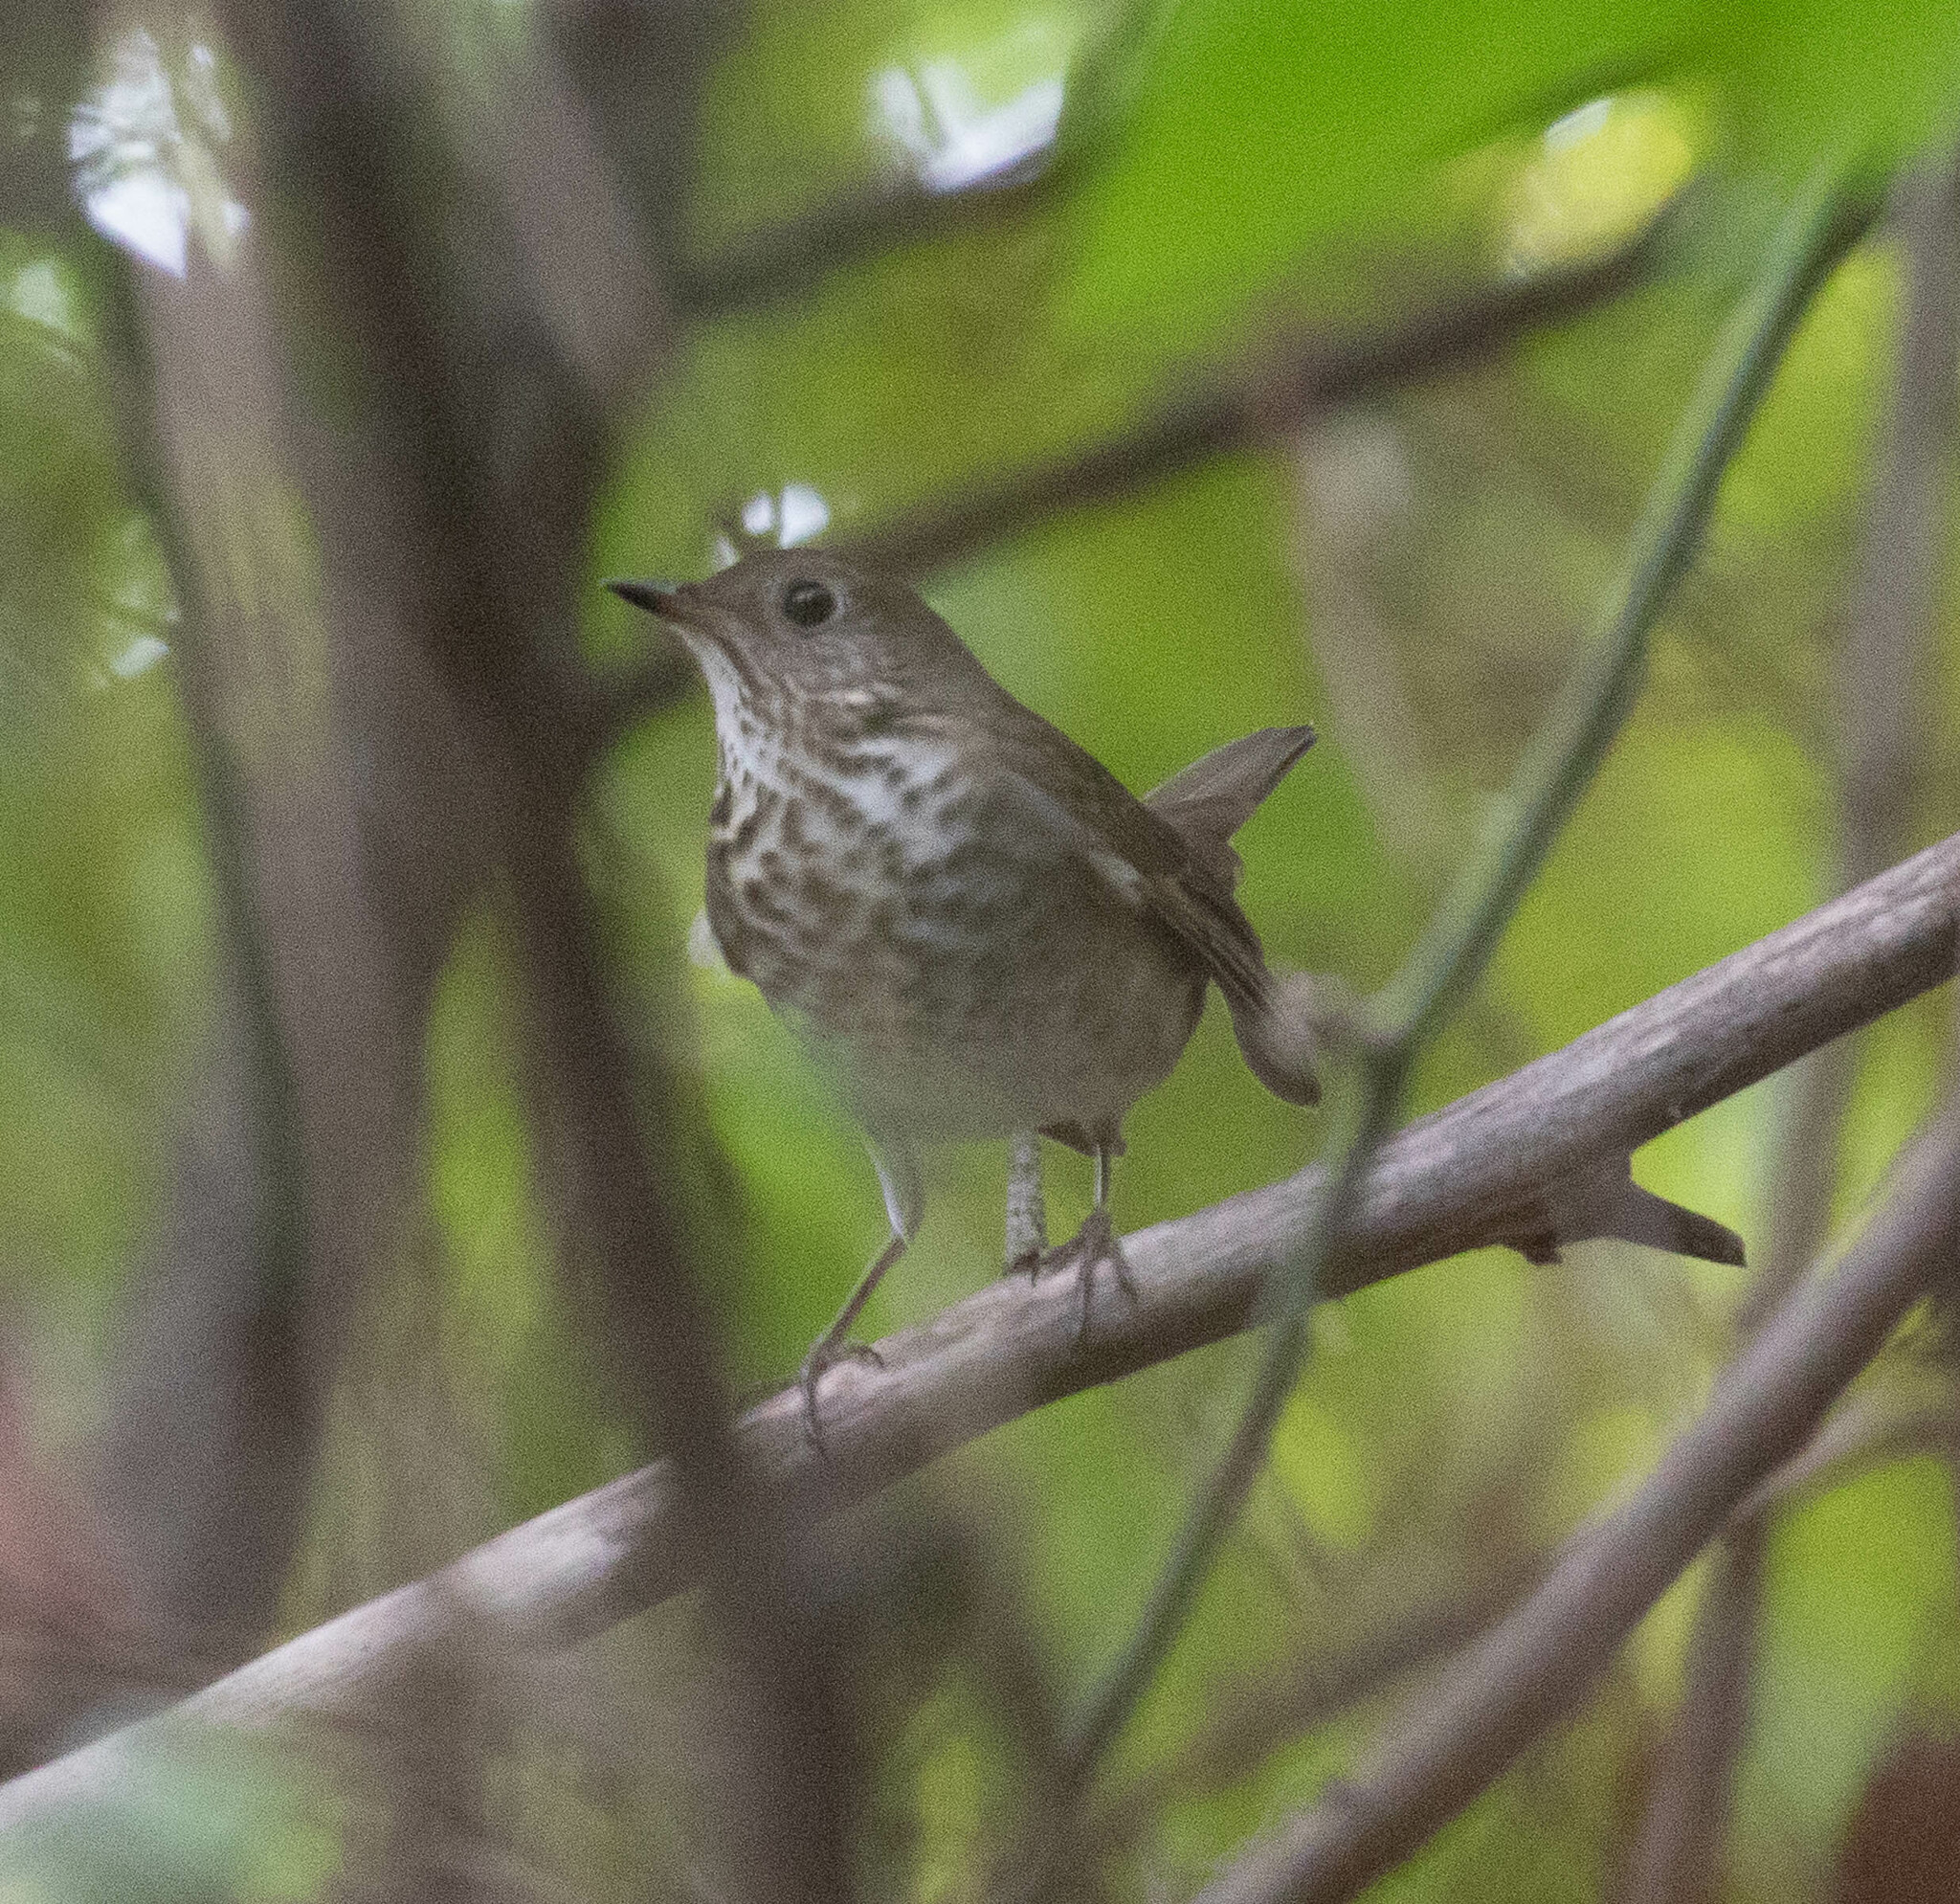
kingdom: Animalia
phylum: Chordata
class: Aves
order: Passeriformes
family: Turdidae
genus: Catharus
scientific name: Catharus minimus
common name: Grey-cheeked thrush
